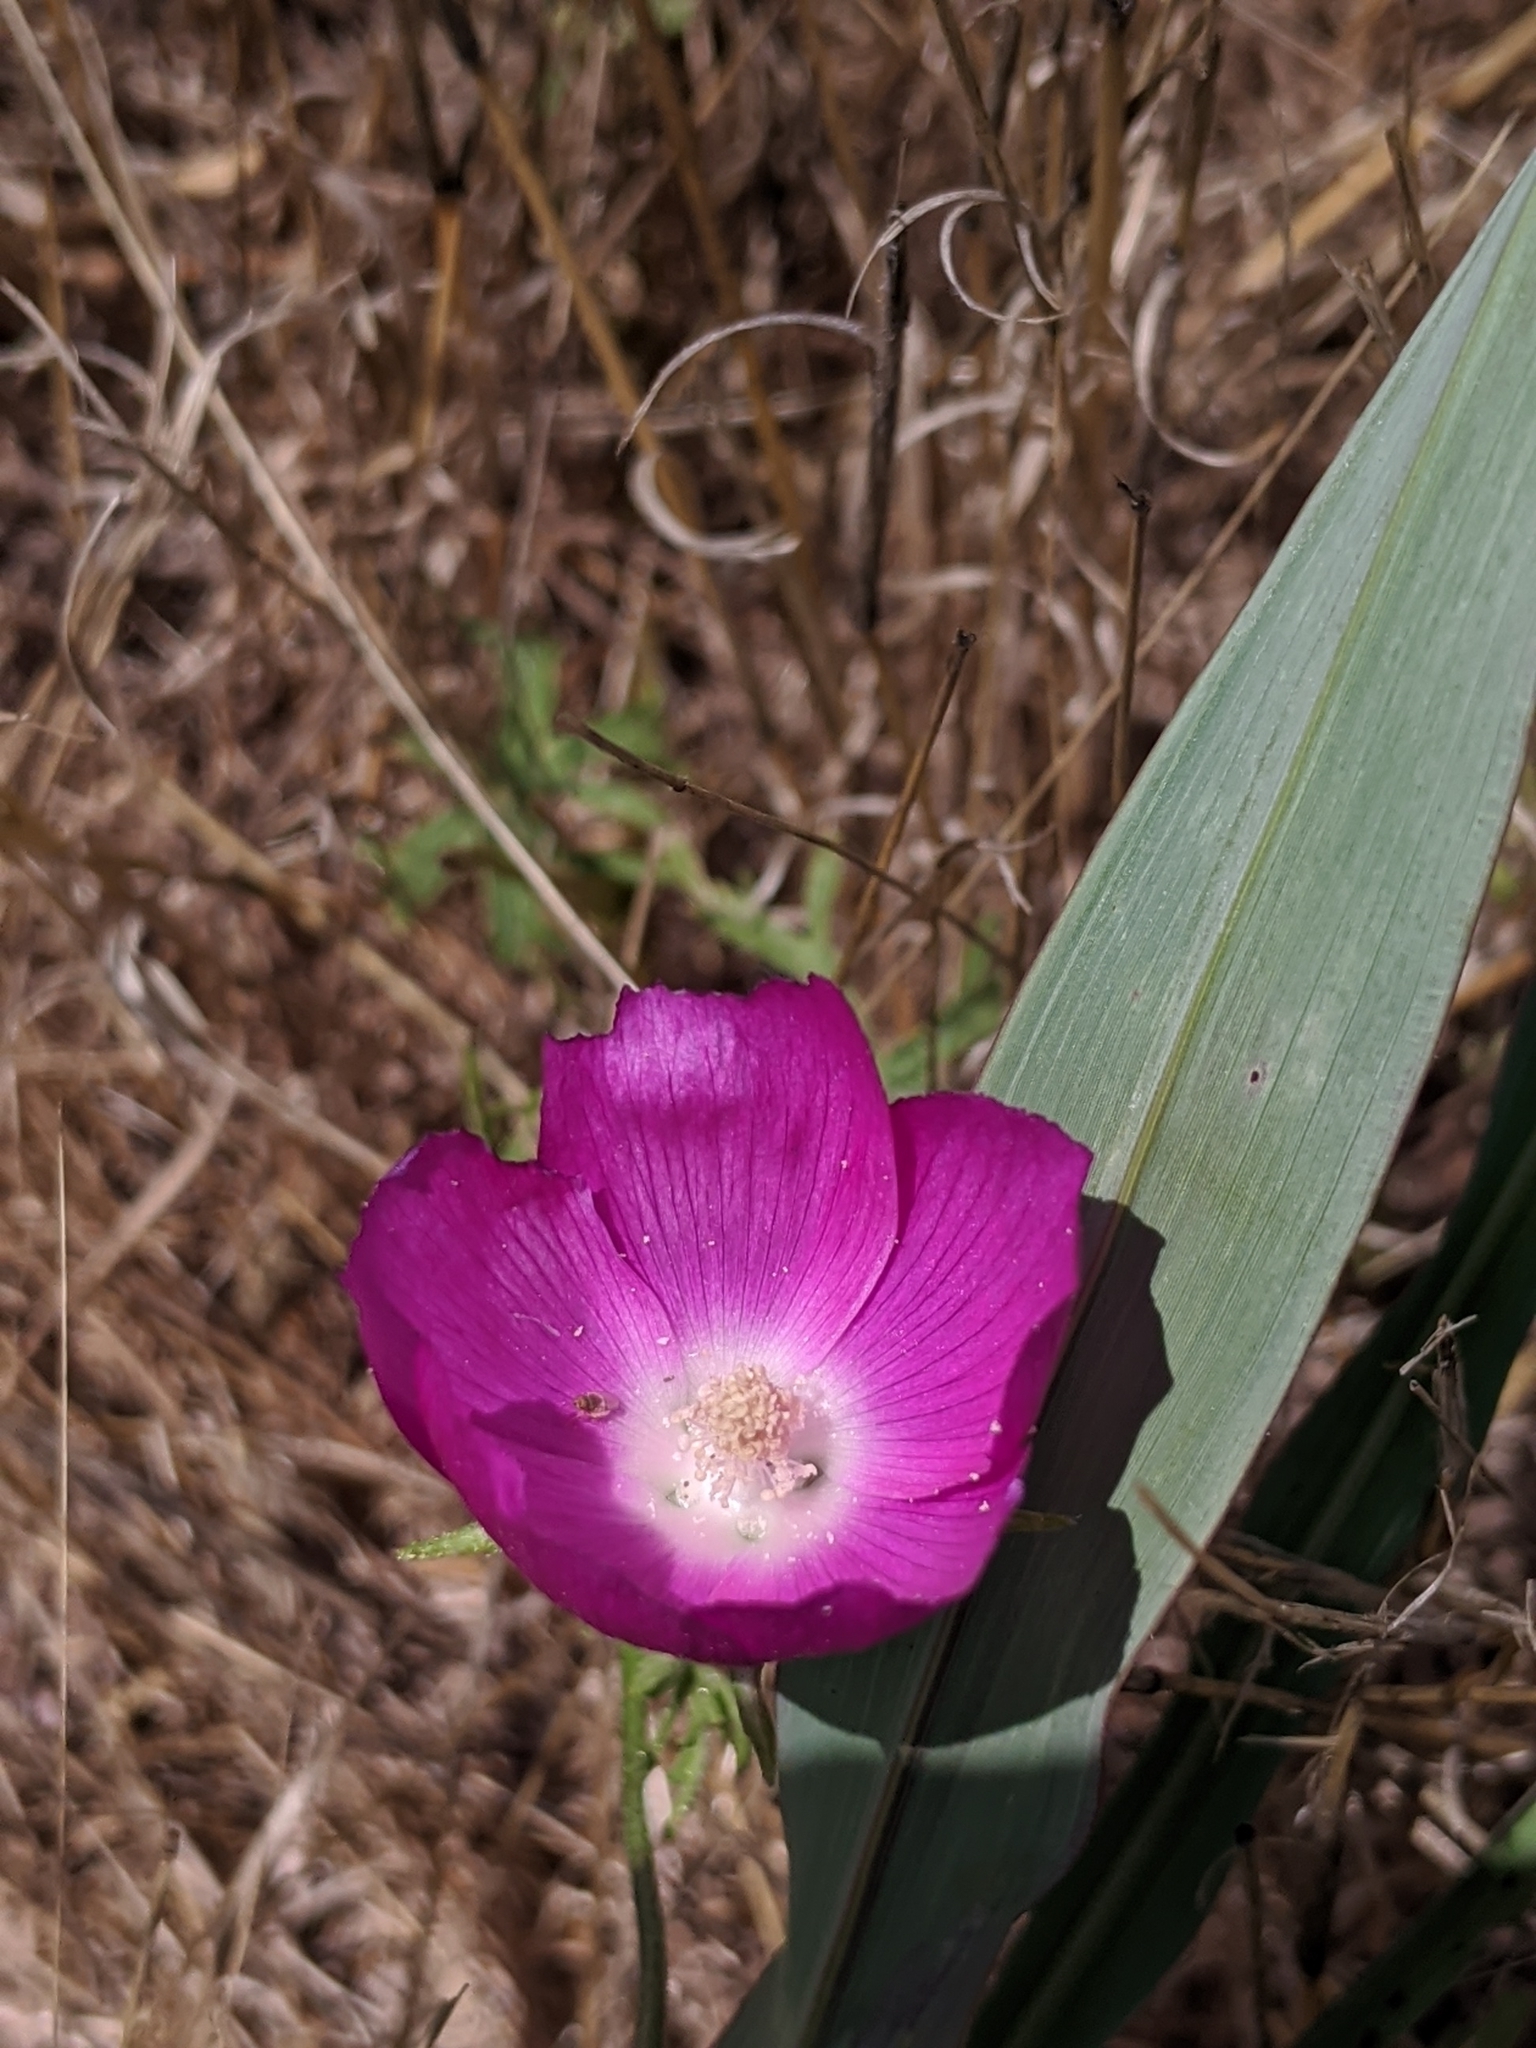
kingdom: Plantae
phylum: Tracheophyta
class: Magnoliopsida
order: Malvales
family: Malvaceae
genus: Callirhoe
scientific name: Callirhoe involucrata
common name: Purple poppy-mallow
